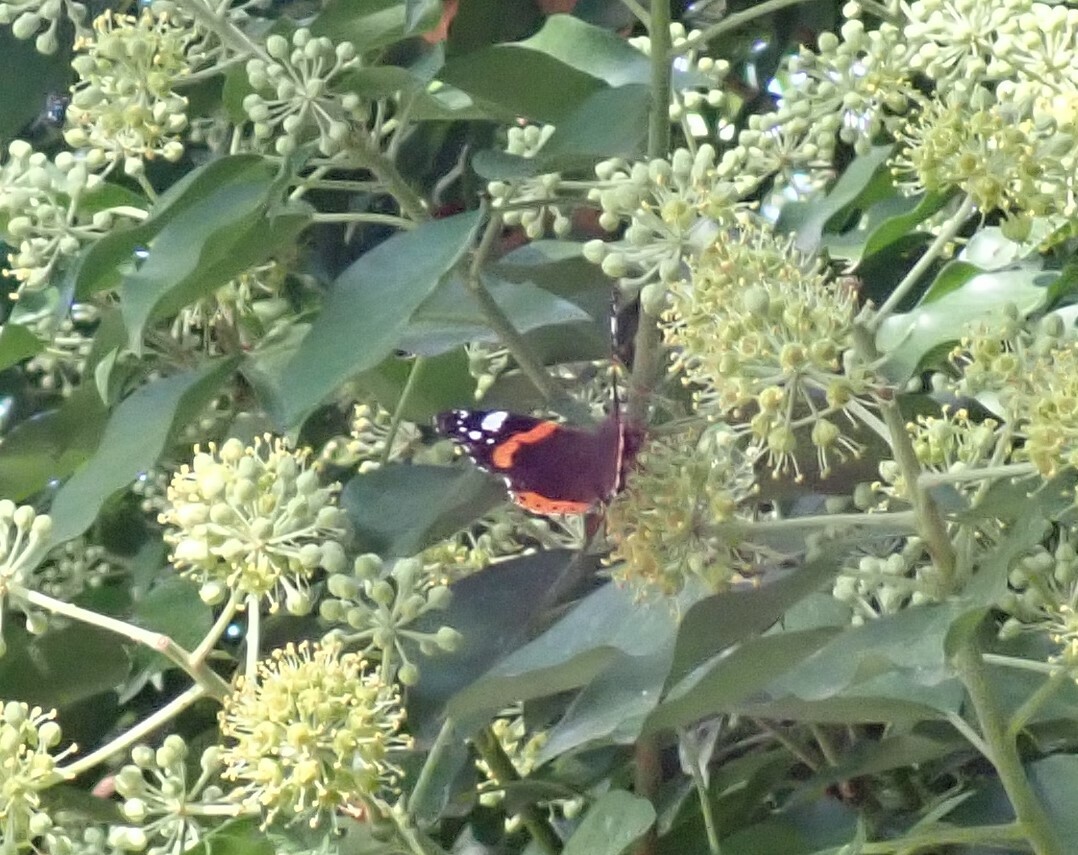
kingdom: Animalia
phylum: Arthropoda
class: Insecta
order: Lepidoptera
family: Nymphalidae
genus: Vanessa
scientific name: Vanessa atalanta
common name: Red admiral
